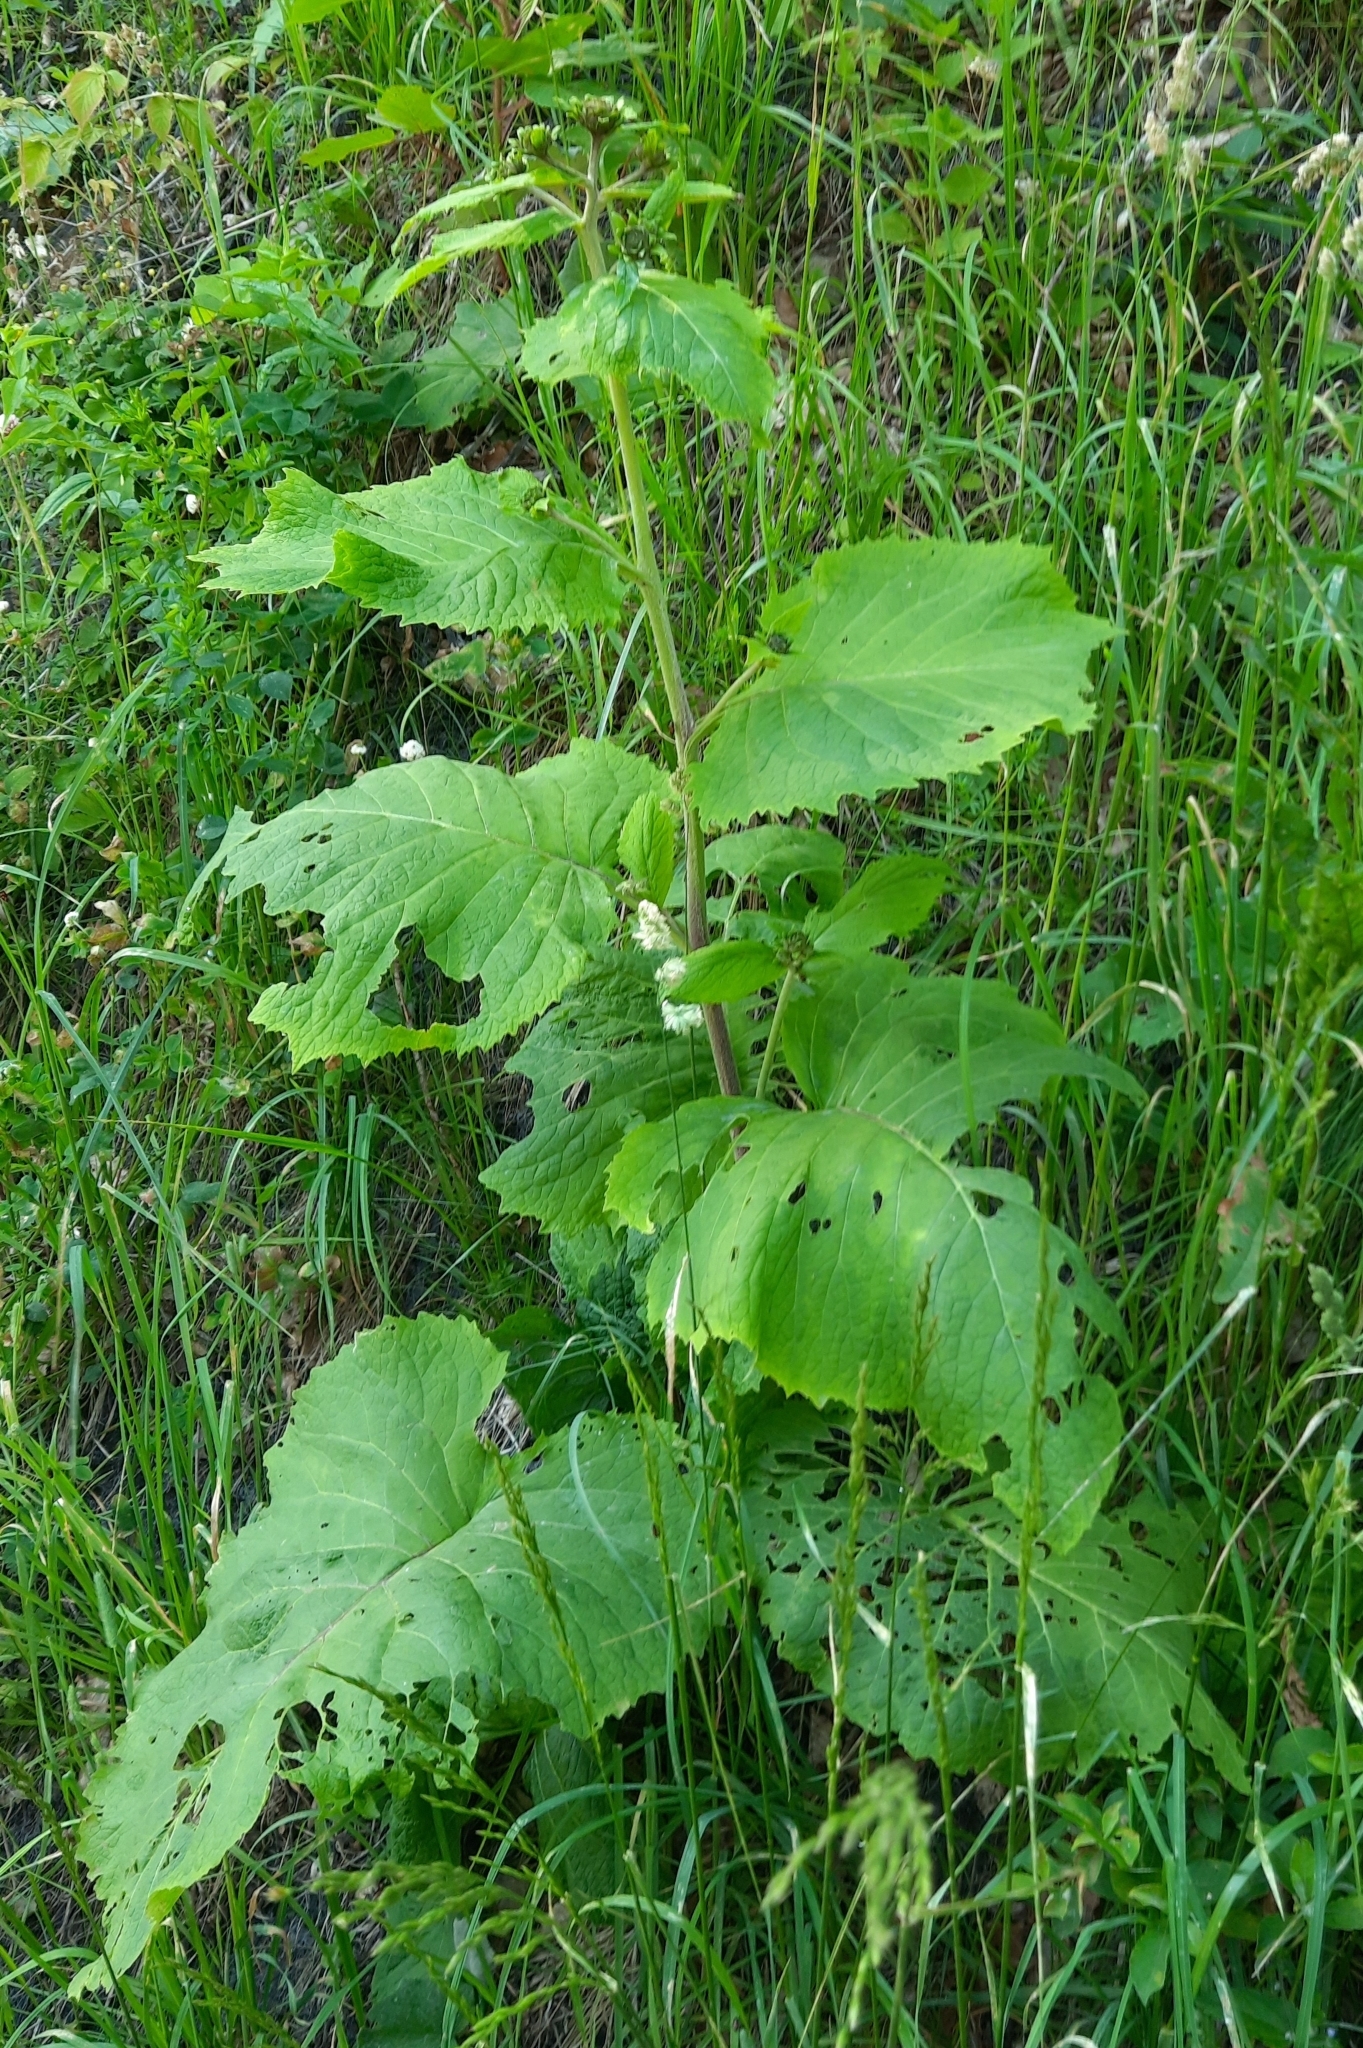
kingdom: Plantae
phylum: Tracheophyta
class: Magnoliopsida
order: Asterales
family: Asteraceae
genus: Telekia
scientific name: Telekia speciosa
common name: Yellow oxeye
